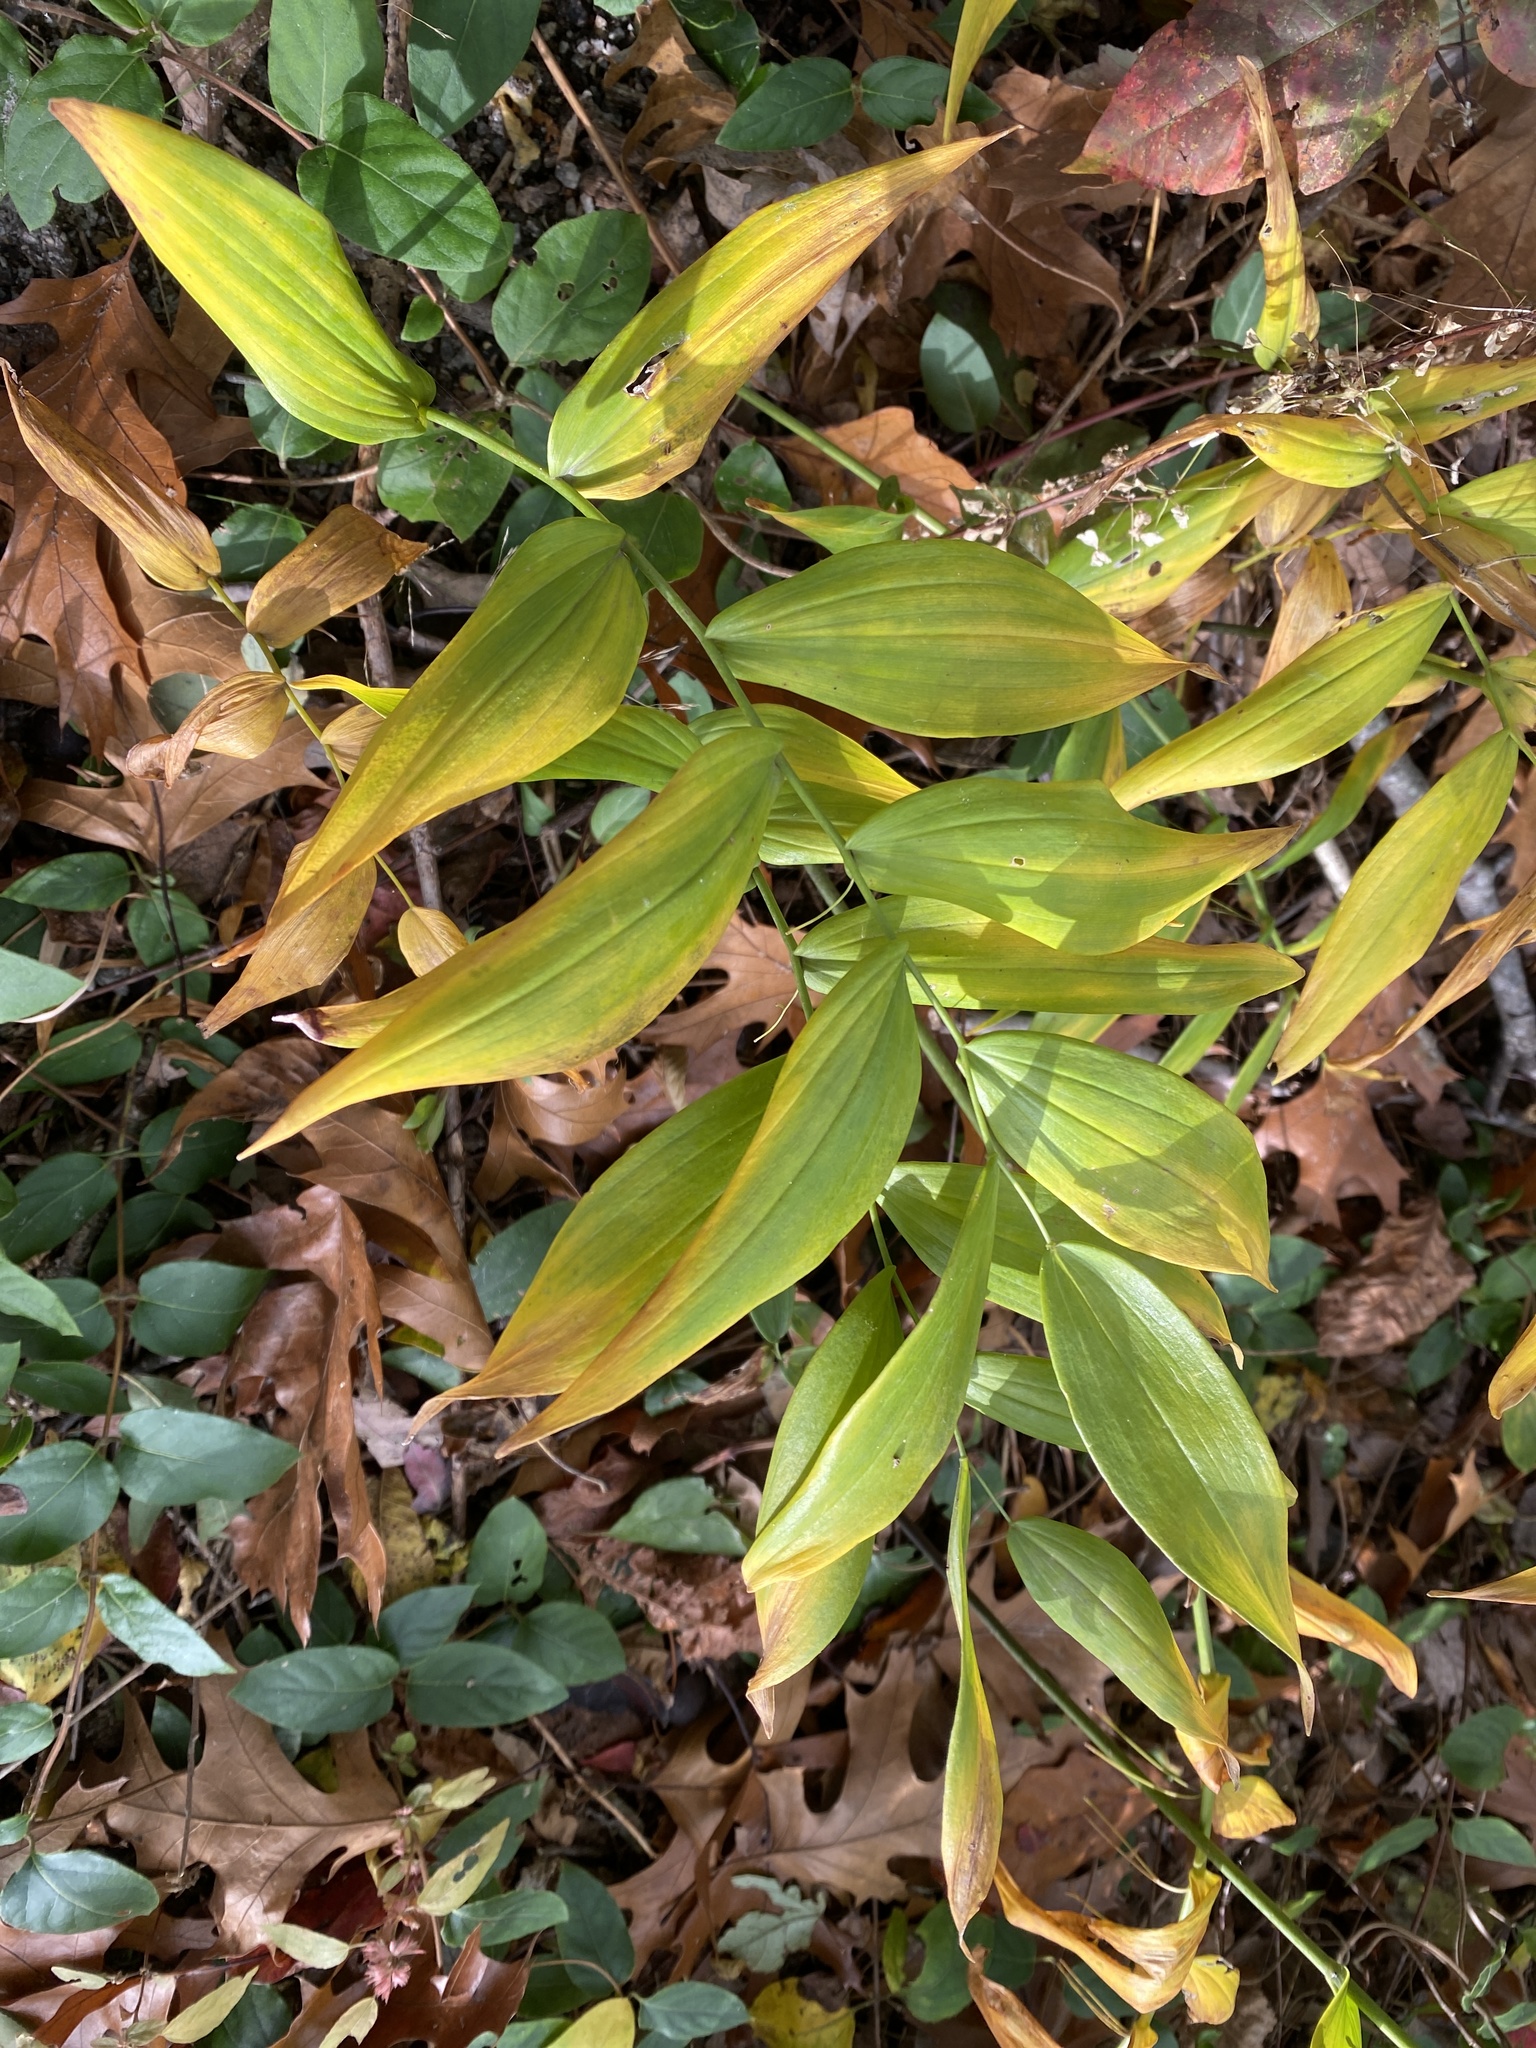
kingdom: Plantae
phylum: Tracheophyta
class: Liliopsida
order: Asparagales
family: Asparagaceae
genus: Polygonatum
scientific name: Polygonatum biflorum
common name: American solomon's-seal
